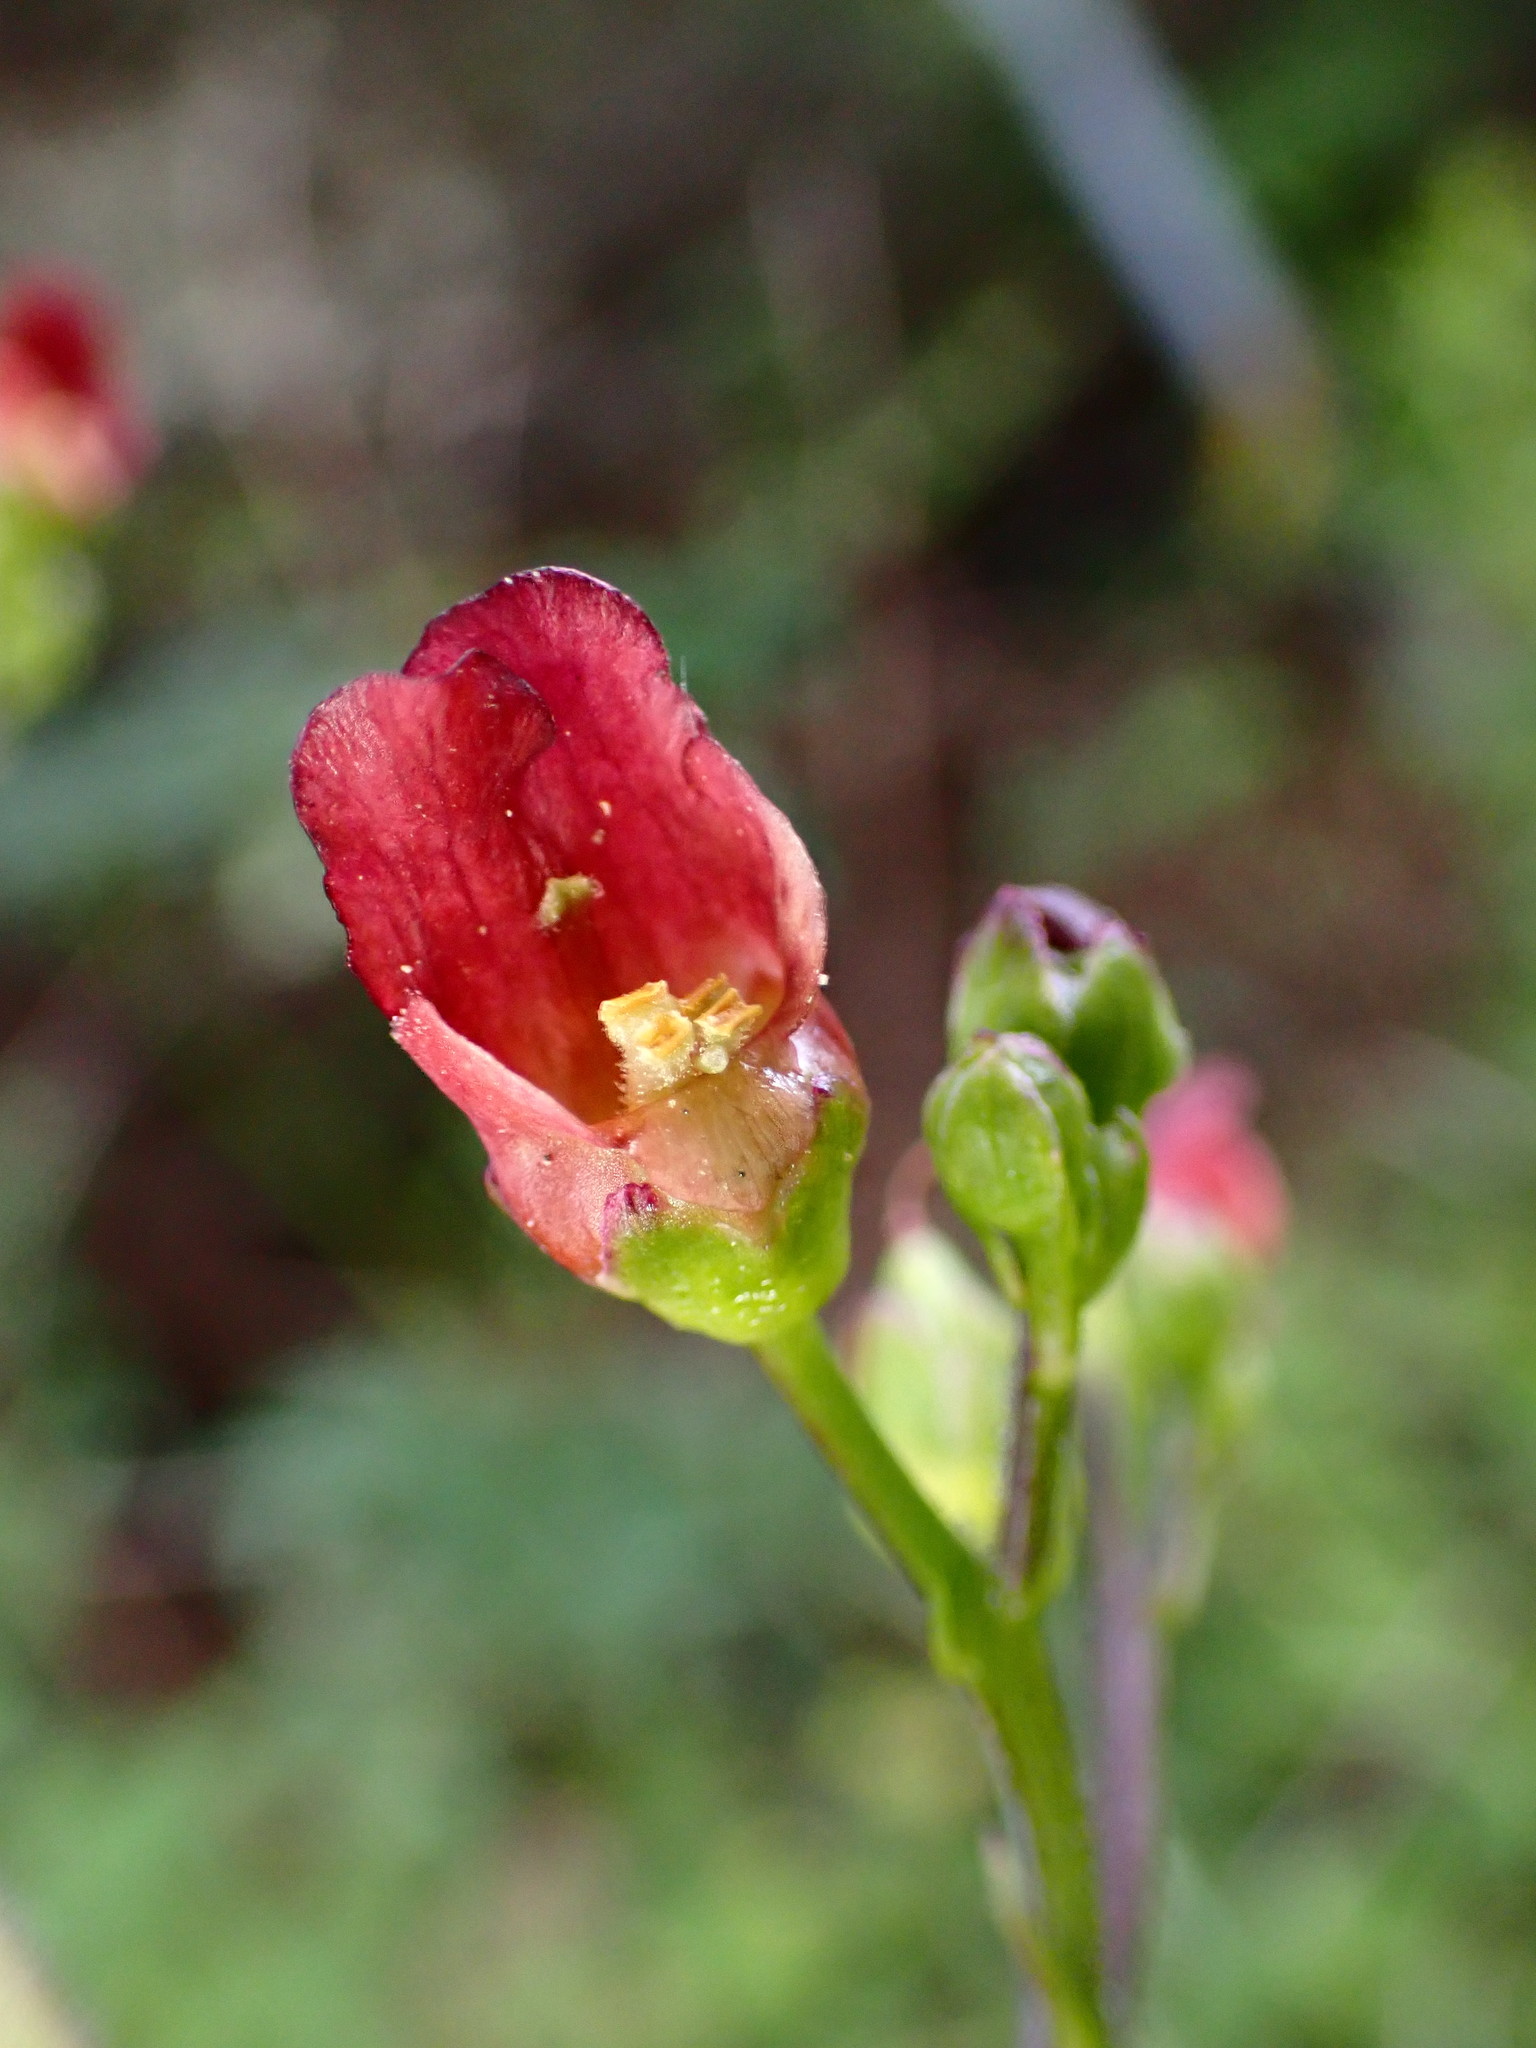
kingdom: Plantae
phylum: Tracheophyta
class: Magnoliopsida
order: Lamiales
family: Scrophulariaceae
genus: Scrophularia
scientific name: Scrophularia californica
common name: California figwort
